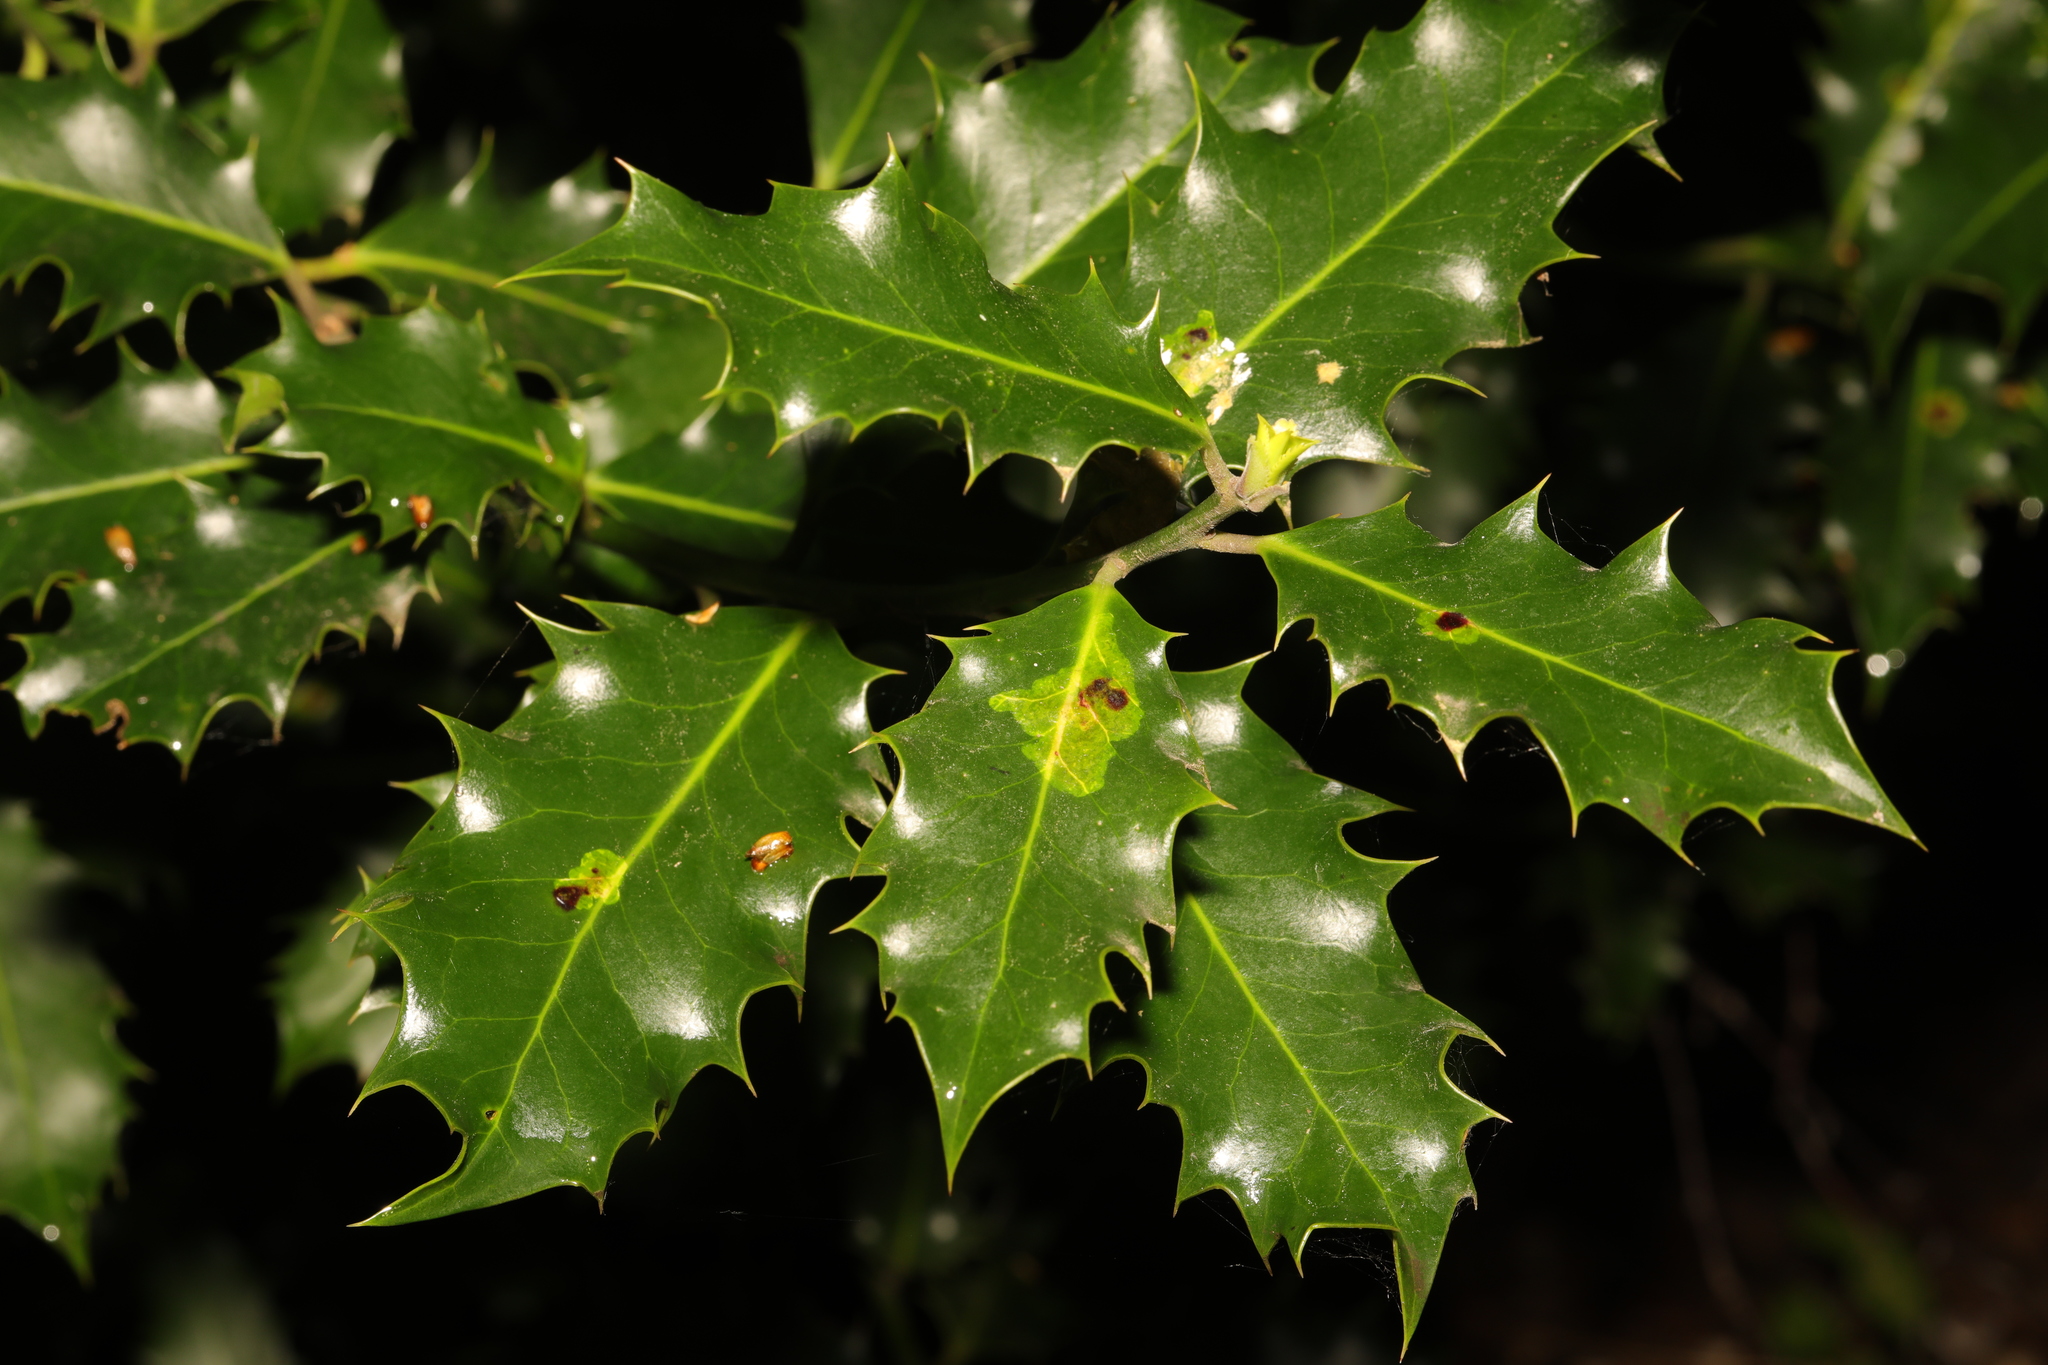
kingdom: Plantae
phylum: Tracheophyta
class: Magnoliopsida
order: Aquifoliales
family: Aquifoliaceae
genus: Ilex
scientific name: Ilex aquifolium
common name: English holly
